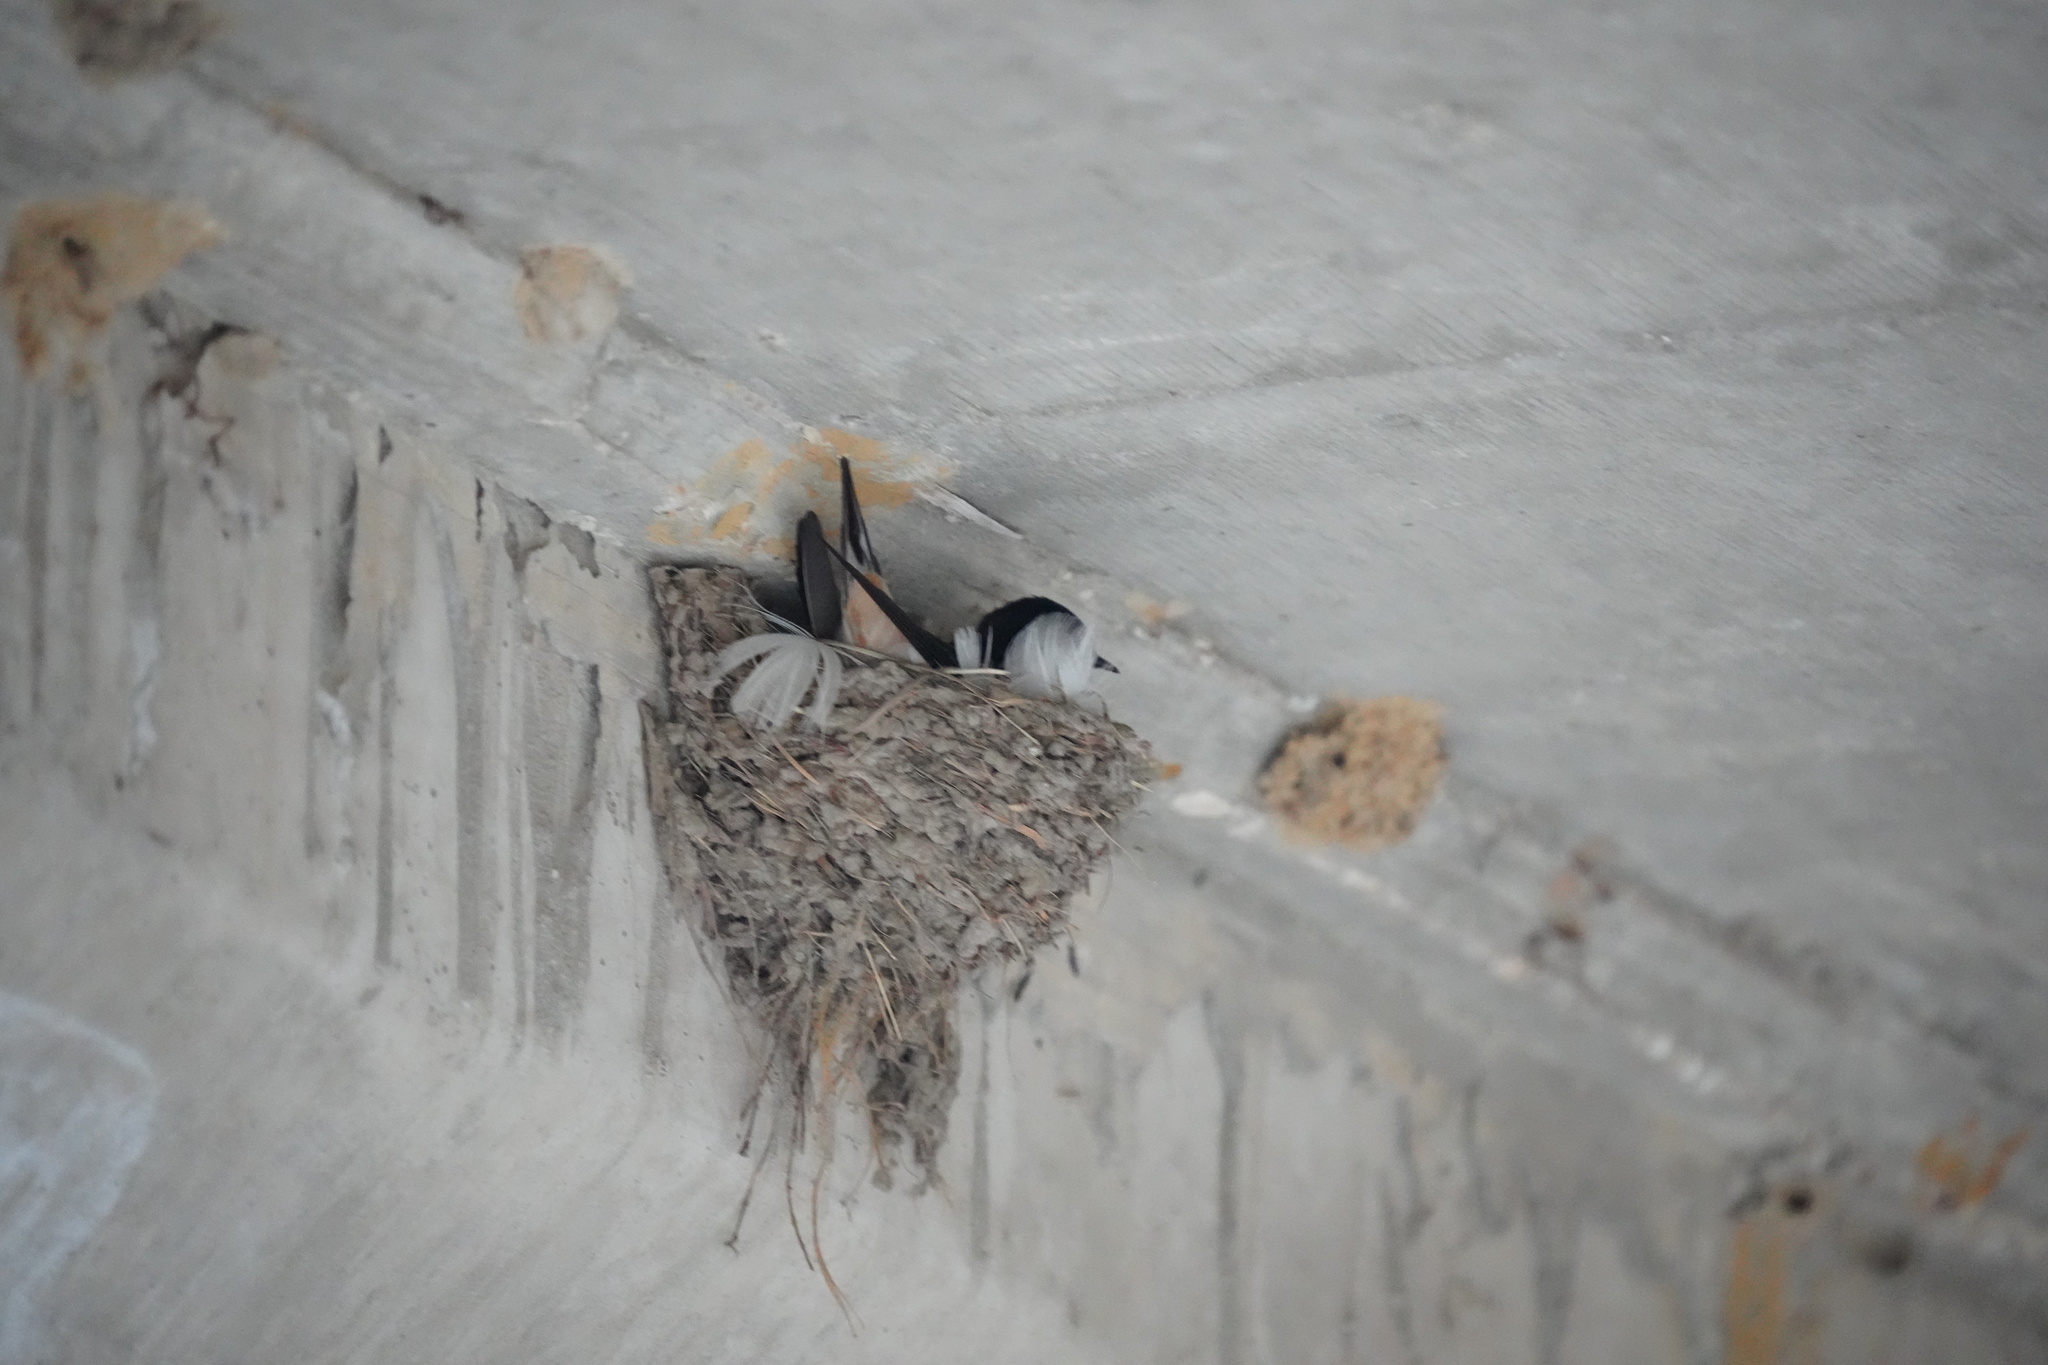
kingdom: Animalia
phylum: Chordata
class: Aves
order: Passeriformes
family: Hirundinidae
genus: Hirundo
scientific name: Hirundo rustica
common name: Barn swallow
